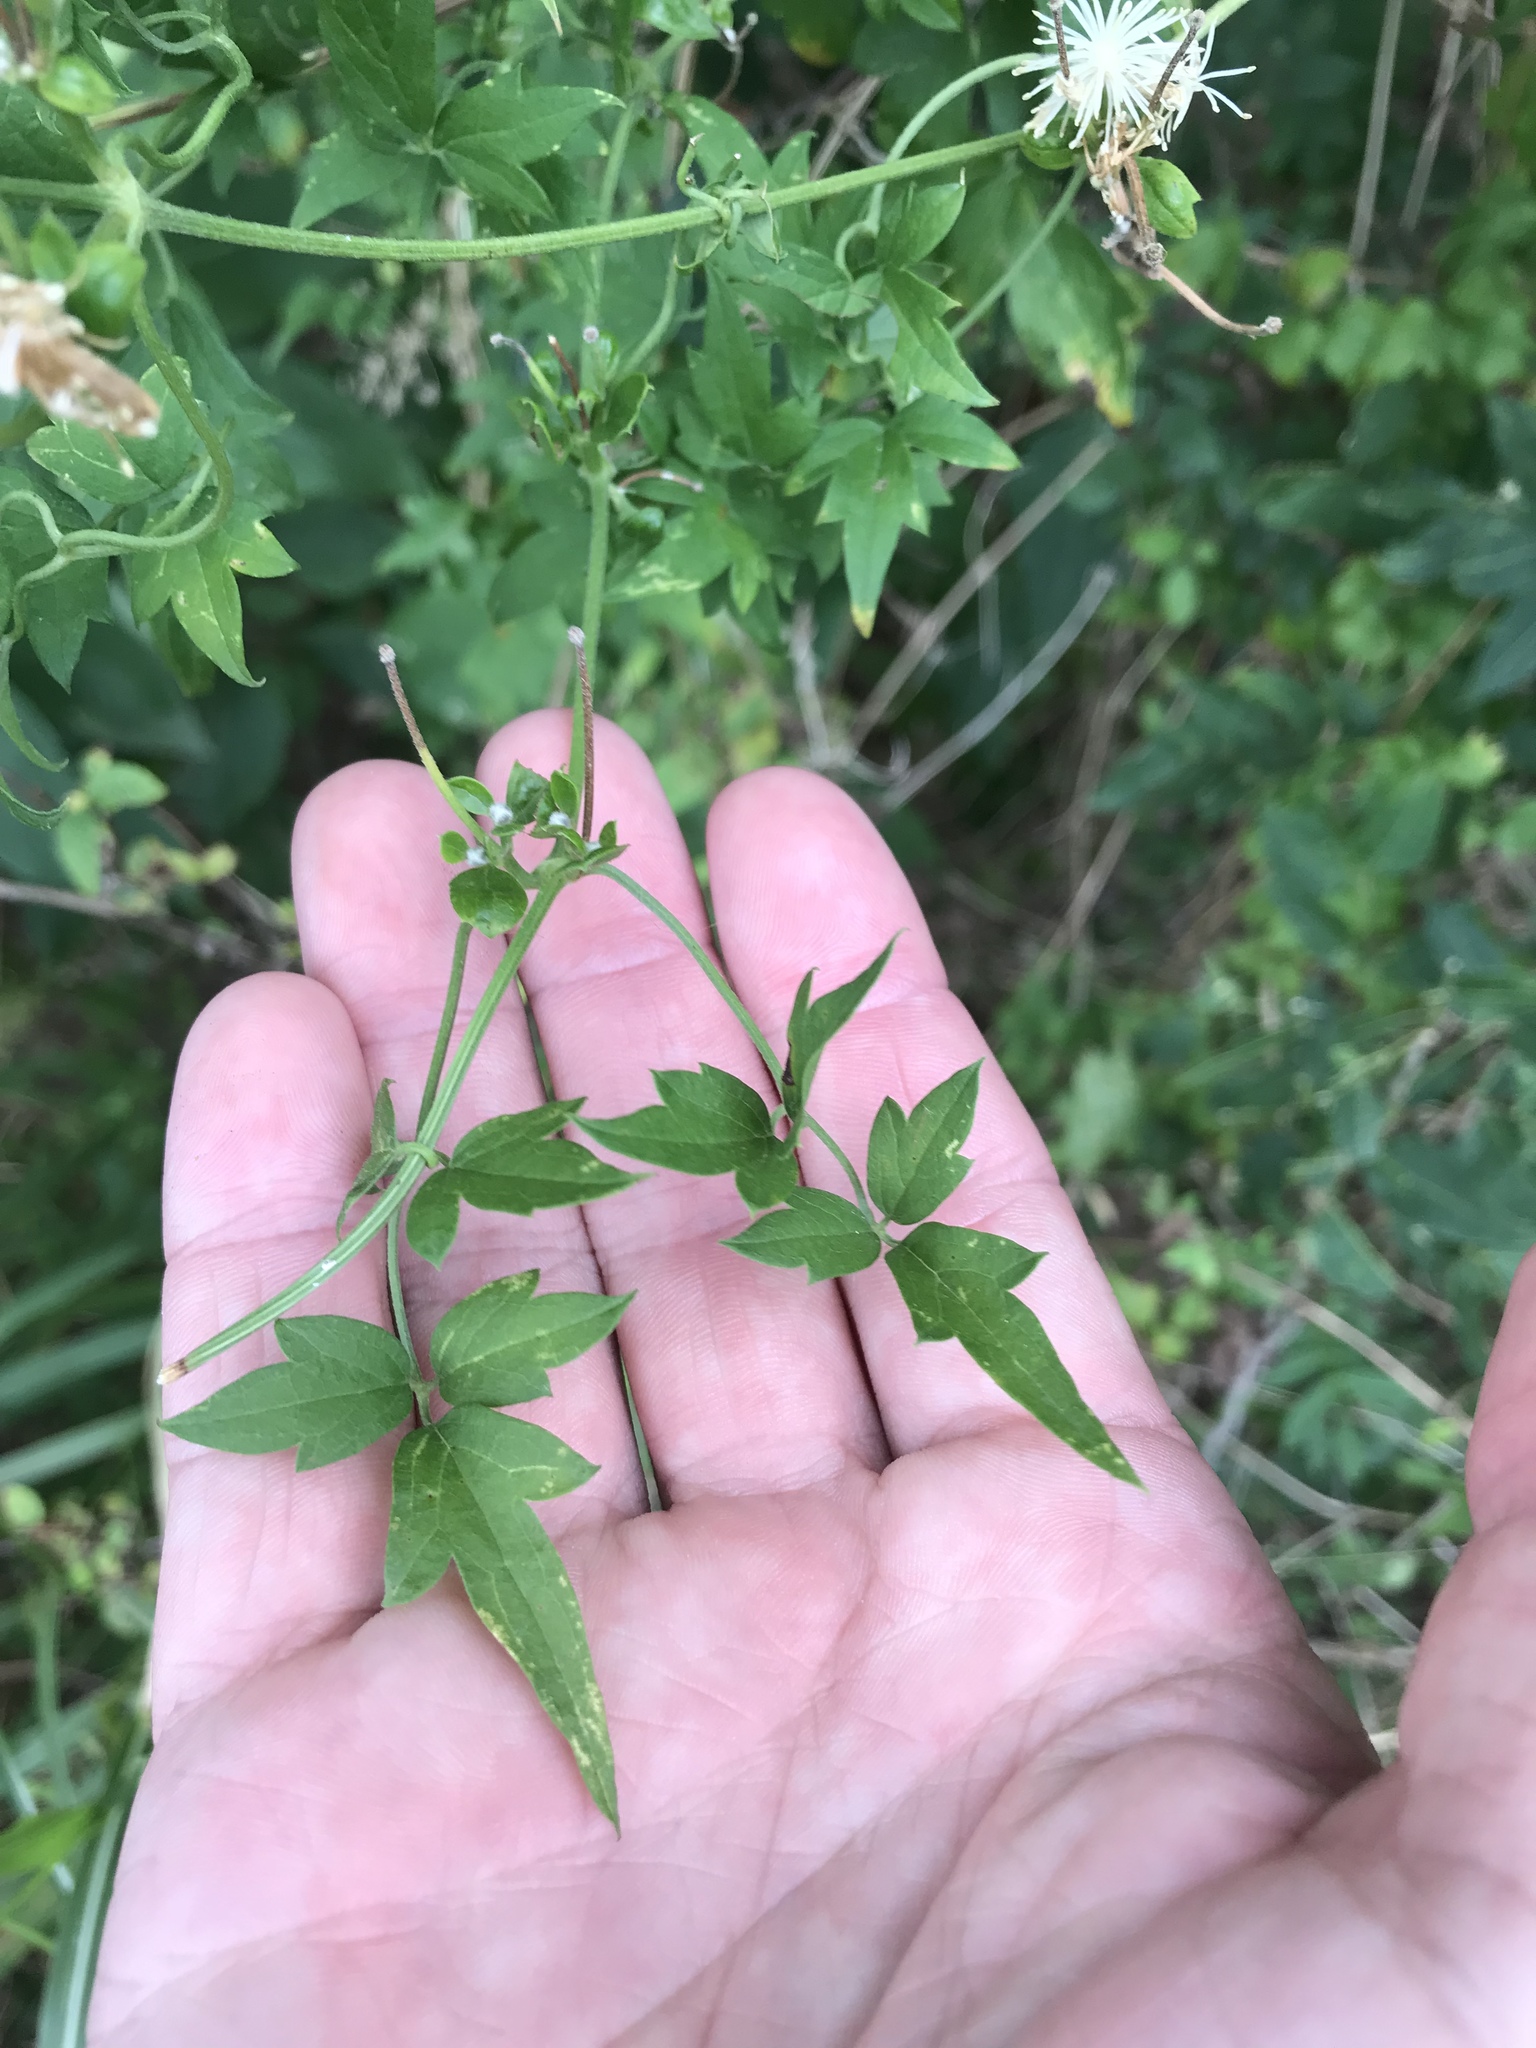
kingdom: Plantae
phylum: Tracheophyta
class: Magnoliopsida
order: Ranunculales
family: Ranunculaceae
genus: Clematis
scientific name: Clematis drummondii
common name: Texas virgin's bower
